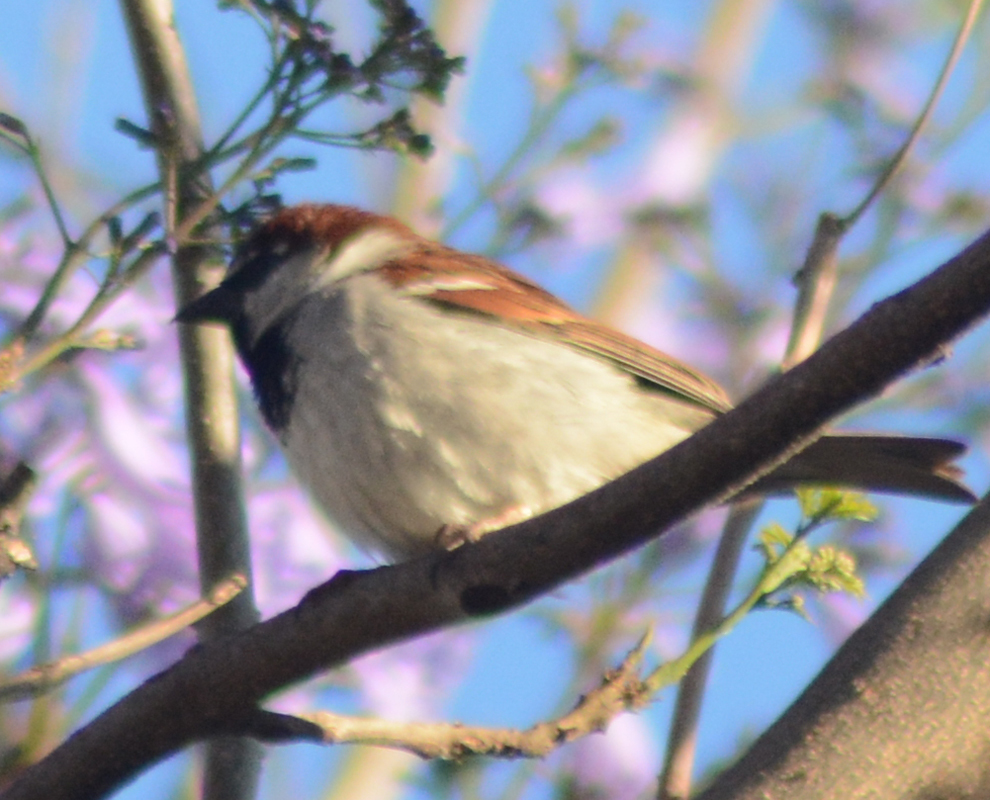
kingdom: Animalia
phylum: Chordata
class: Aves
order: Passeriformes
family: Passeridae
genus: Passer
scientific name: Passer domesticus
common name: House sparrow
